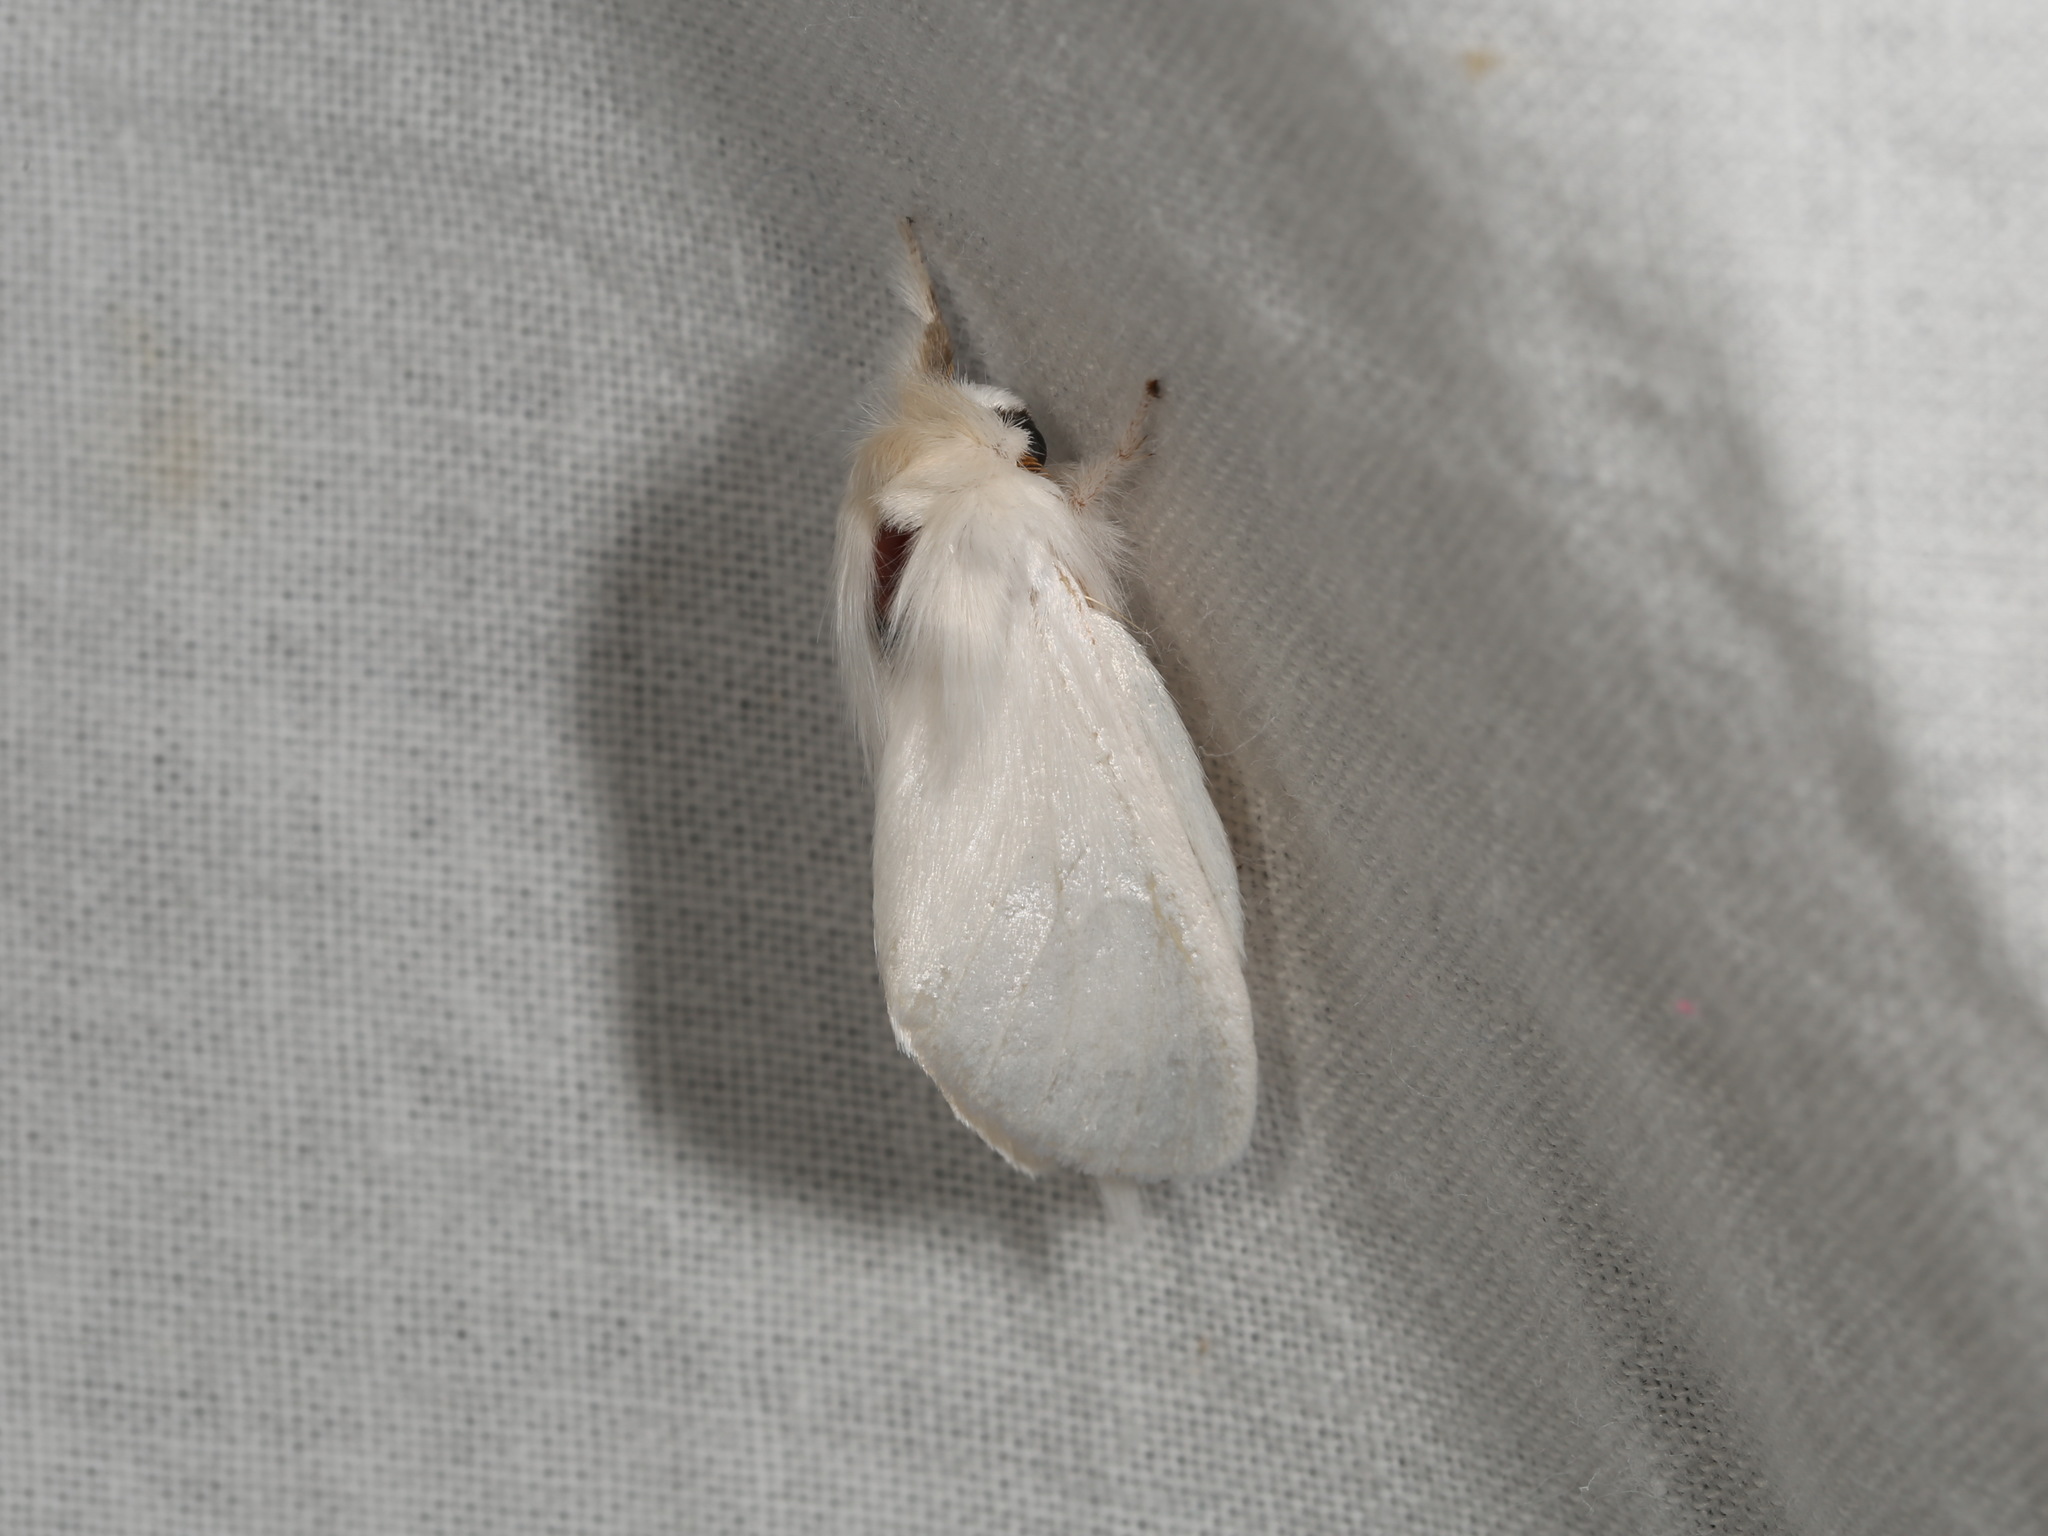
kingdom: Animalia
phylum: Arthropoda
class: Insecta
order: Lepidoptera
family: Notodontidae
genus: Trichiocercus
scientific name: Trichiocercus sparshalli
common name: Long-tailed satin
